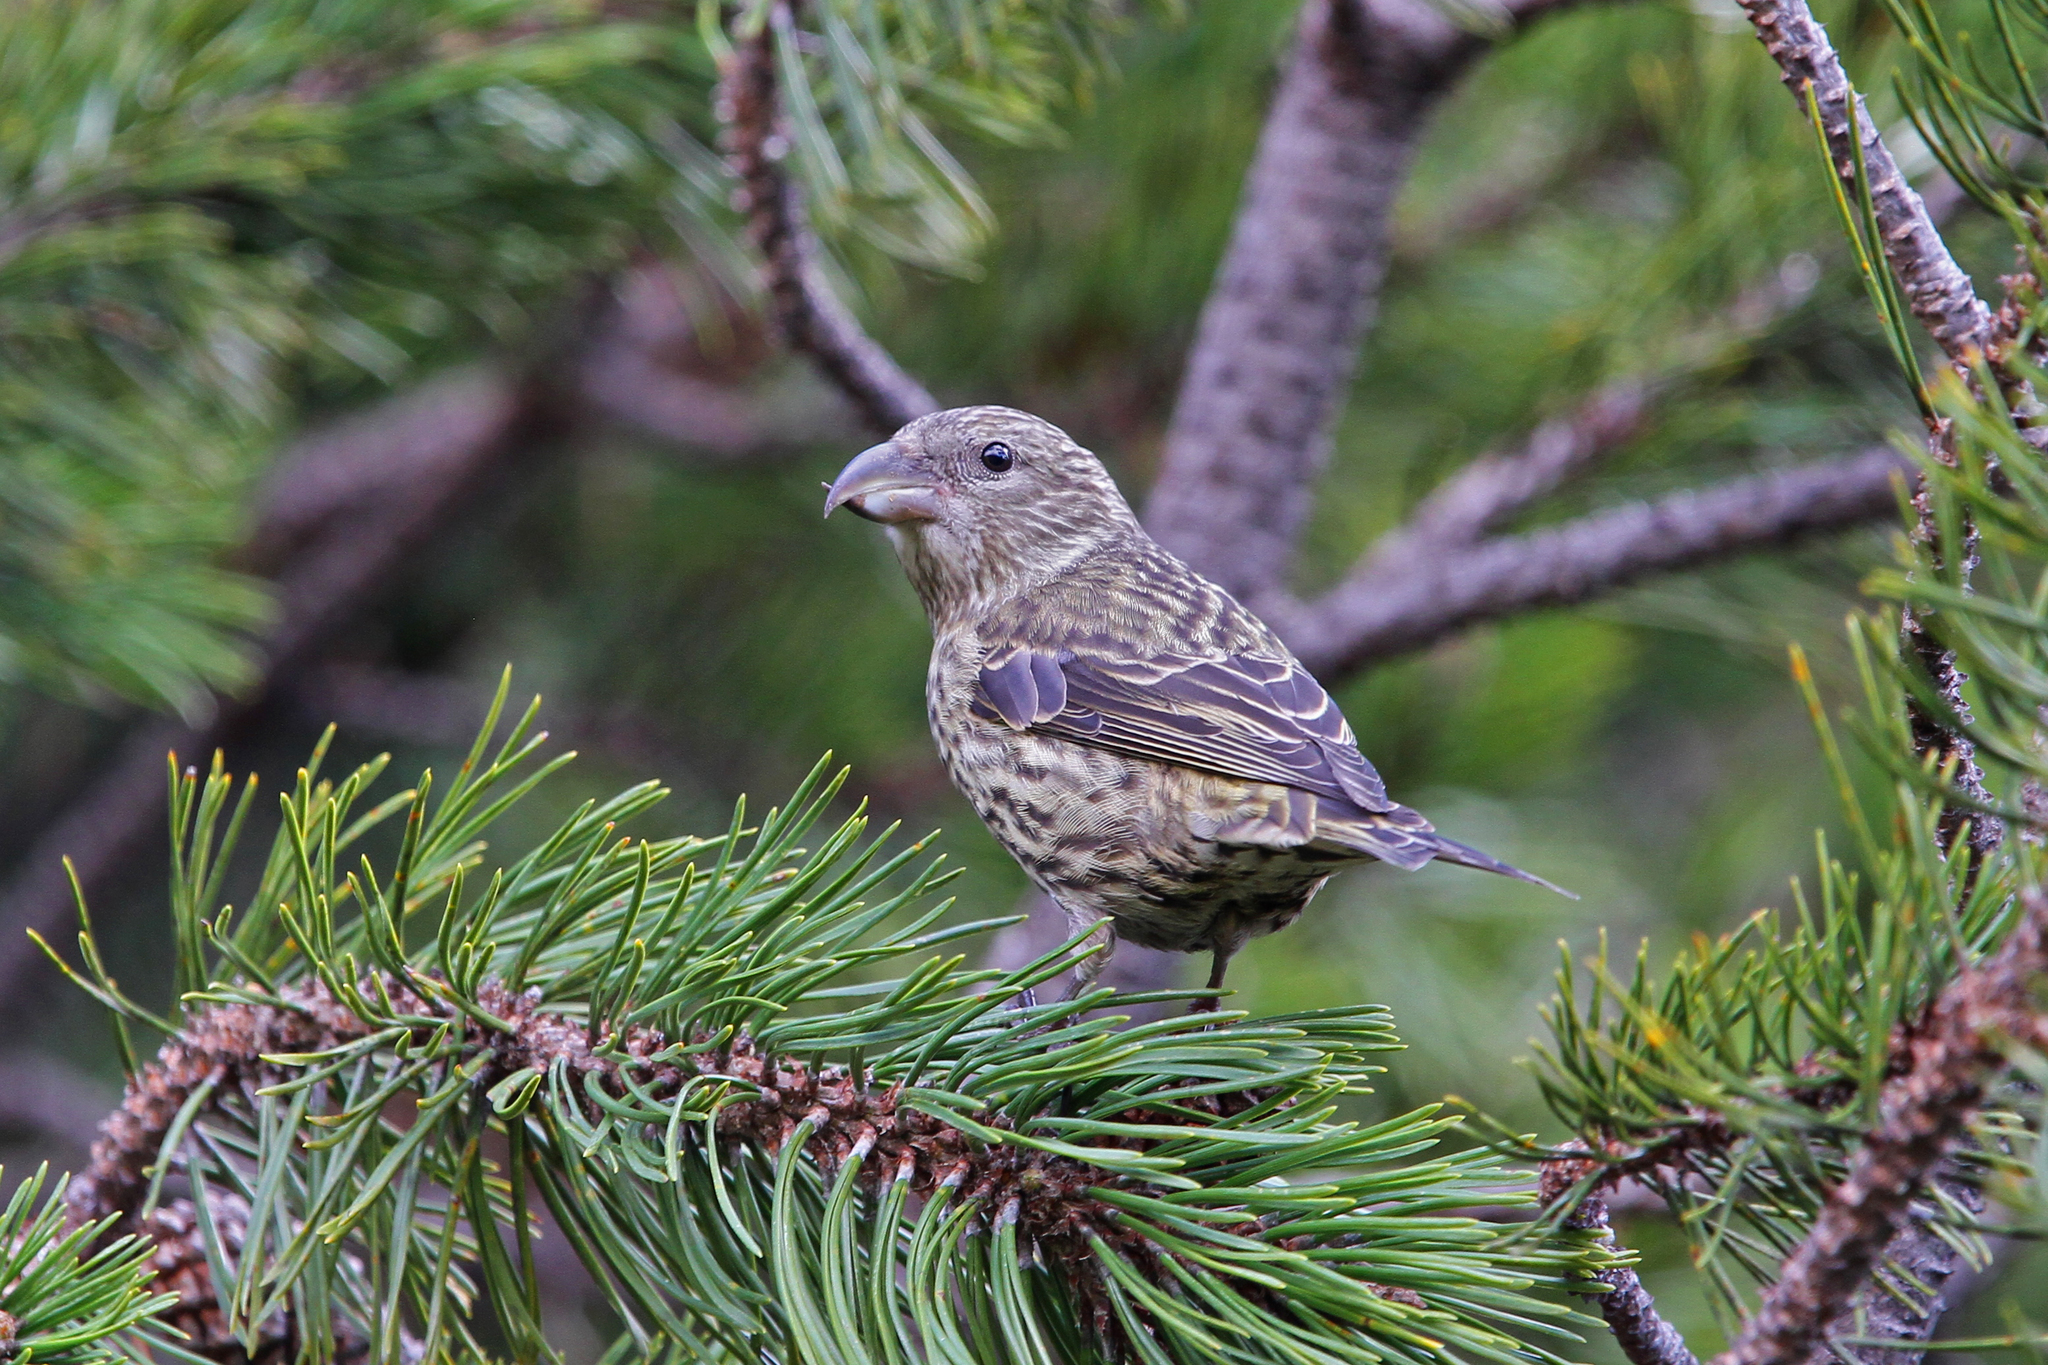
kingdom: Animalia
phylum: Chordata
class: Aves
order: Passeriformes
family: Fringillidae
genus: Loxia
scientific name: Loxia curvirostra
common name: Red crossbill
